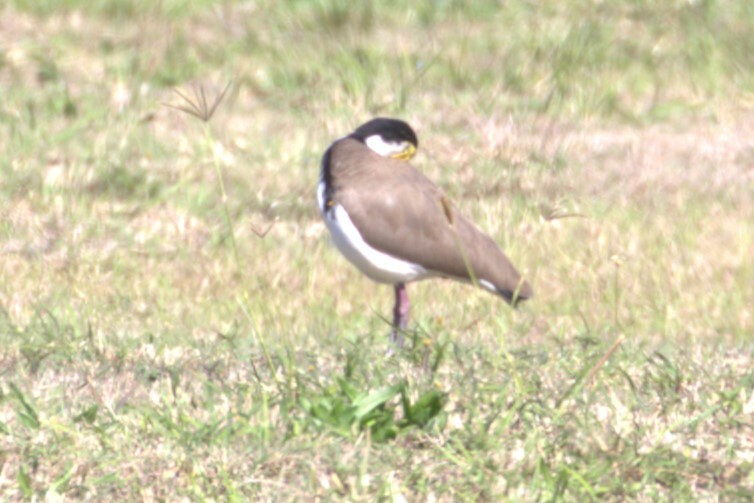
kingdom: Animalia
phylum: Chordata
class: Aves
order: Charadriiformes
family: Charadriidae
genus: Vanellus
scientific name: Vanellus miles
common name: Masked lapwing
